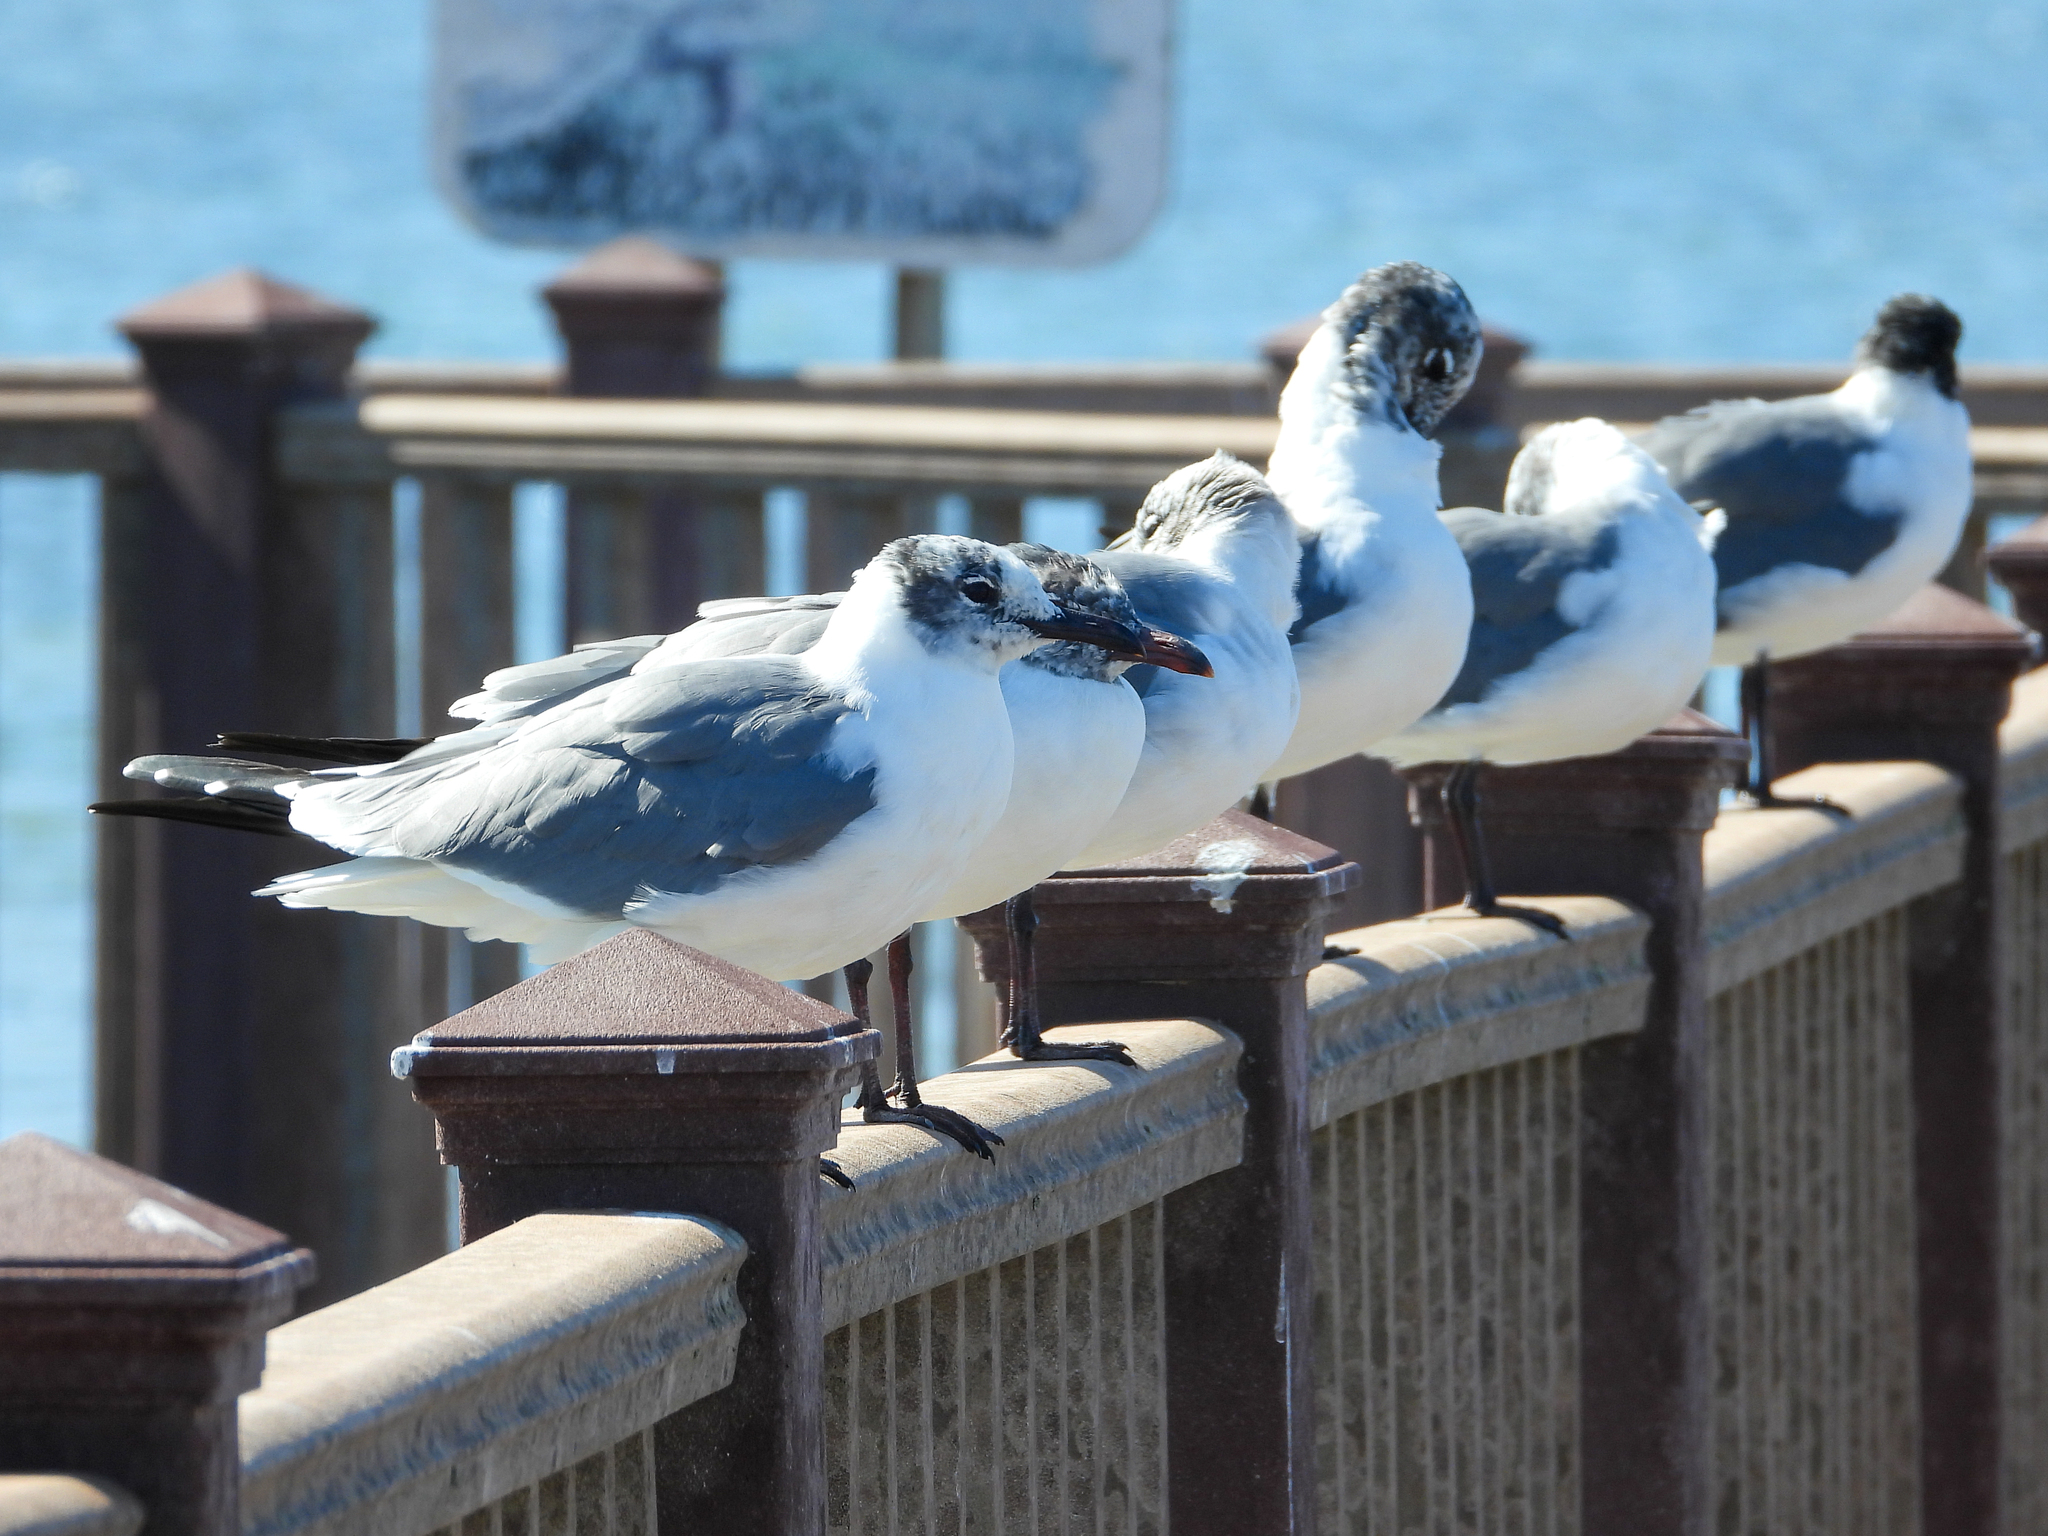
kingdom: Animalia
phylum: Chordata
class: Aves
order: Charadriiformes
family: Laridae
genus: Leucophaeus
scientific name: Leucophaeus atricilla
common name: Laughing gull
